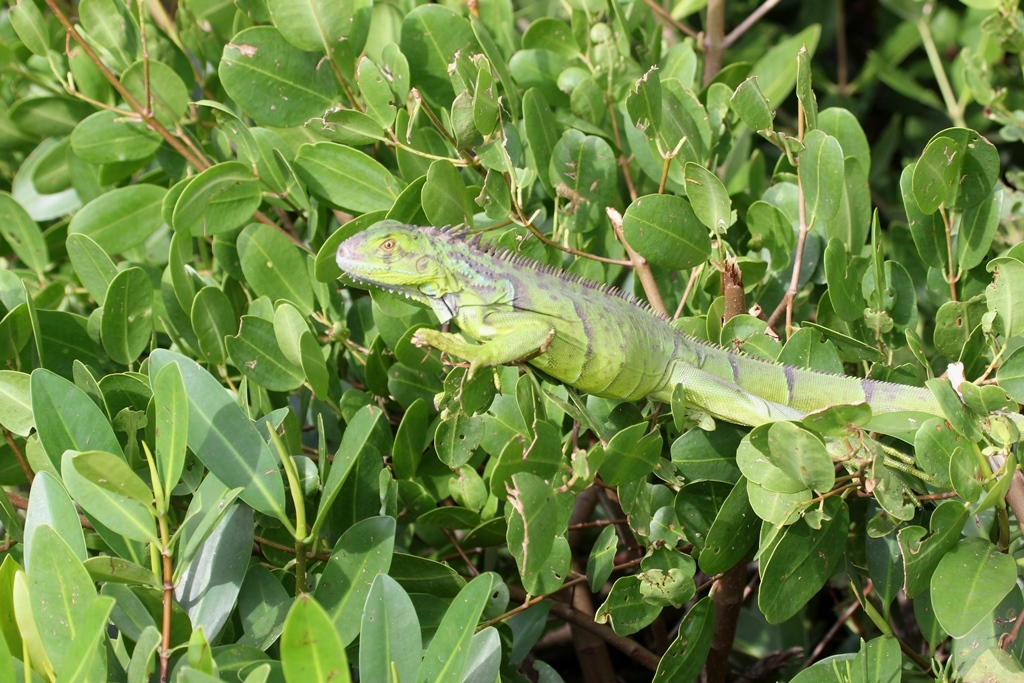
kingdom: Animalia
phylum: Chordata
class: Squamata
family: Iguanidae
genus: Iguana
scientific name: Iguana iguana
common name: Green iguana
